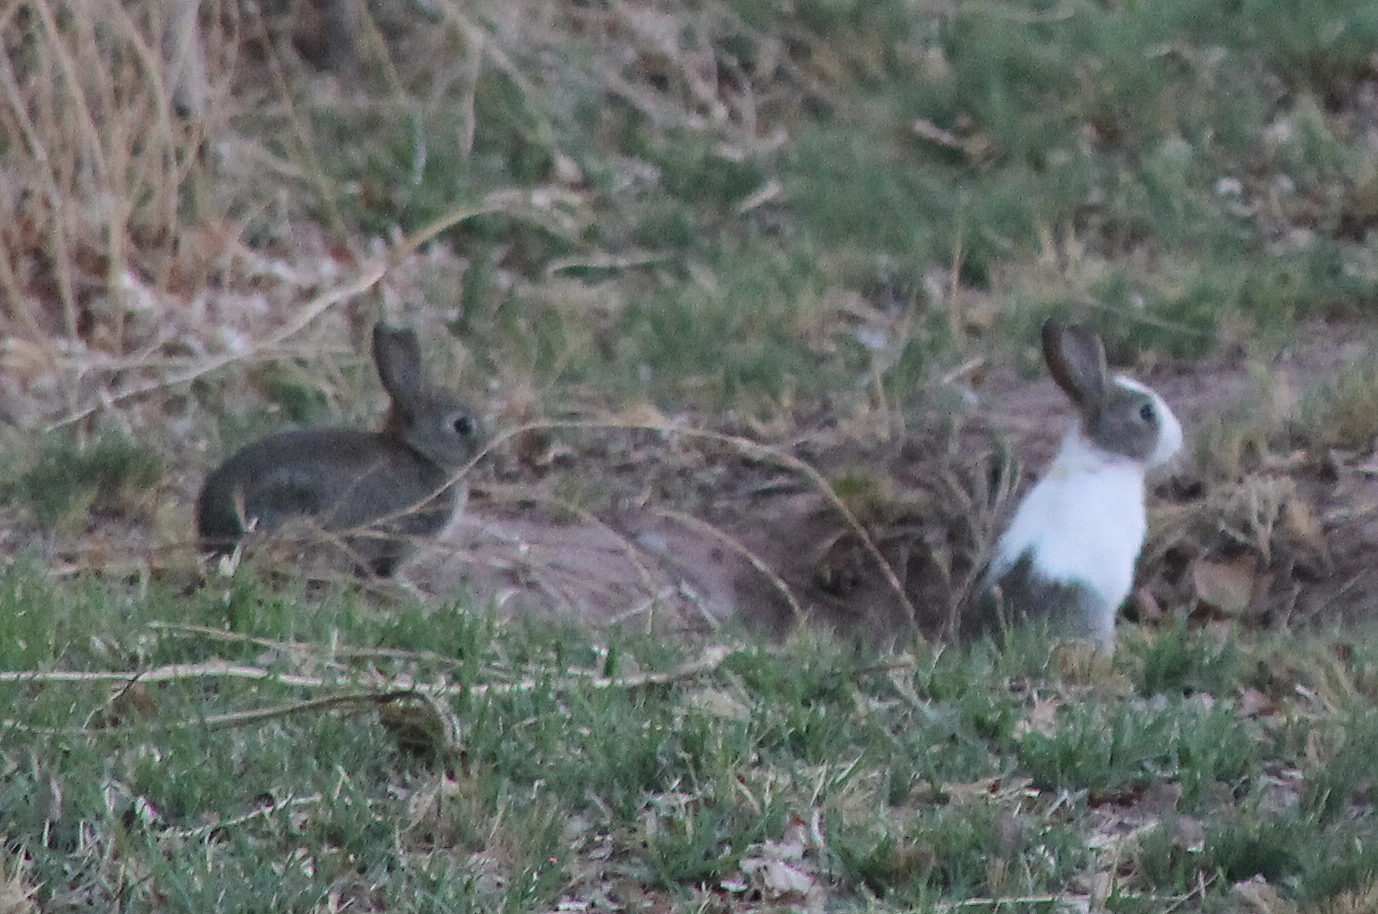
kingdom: Animalia
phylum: Chordata
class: Mammalia
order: Lagomorpha
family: Leporidae
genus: Oryctolagus
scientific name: Oryctolagus cuniculus
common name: European rabbit
